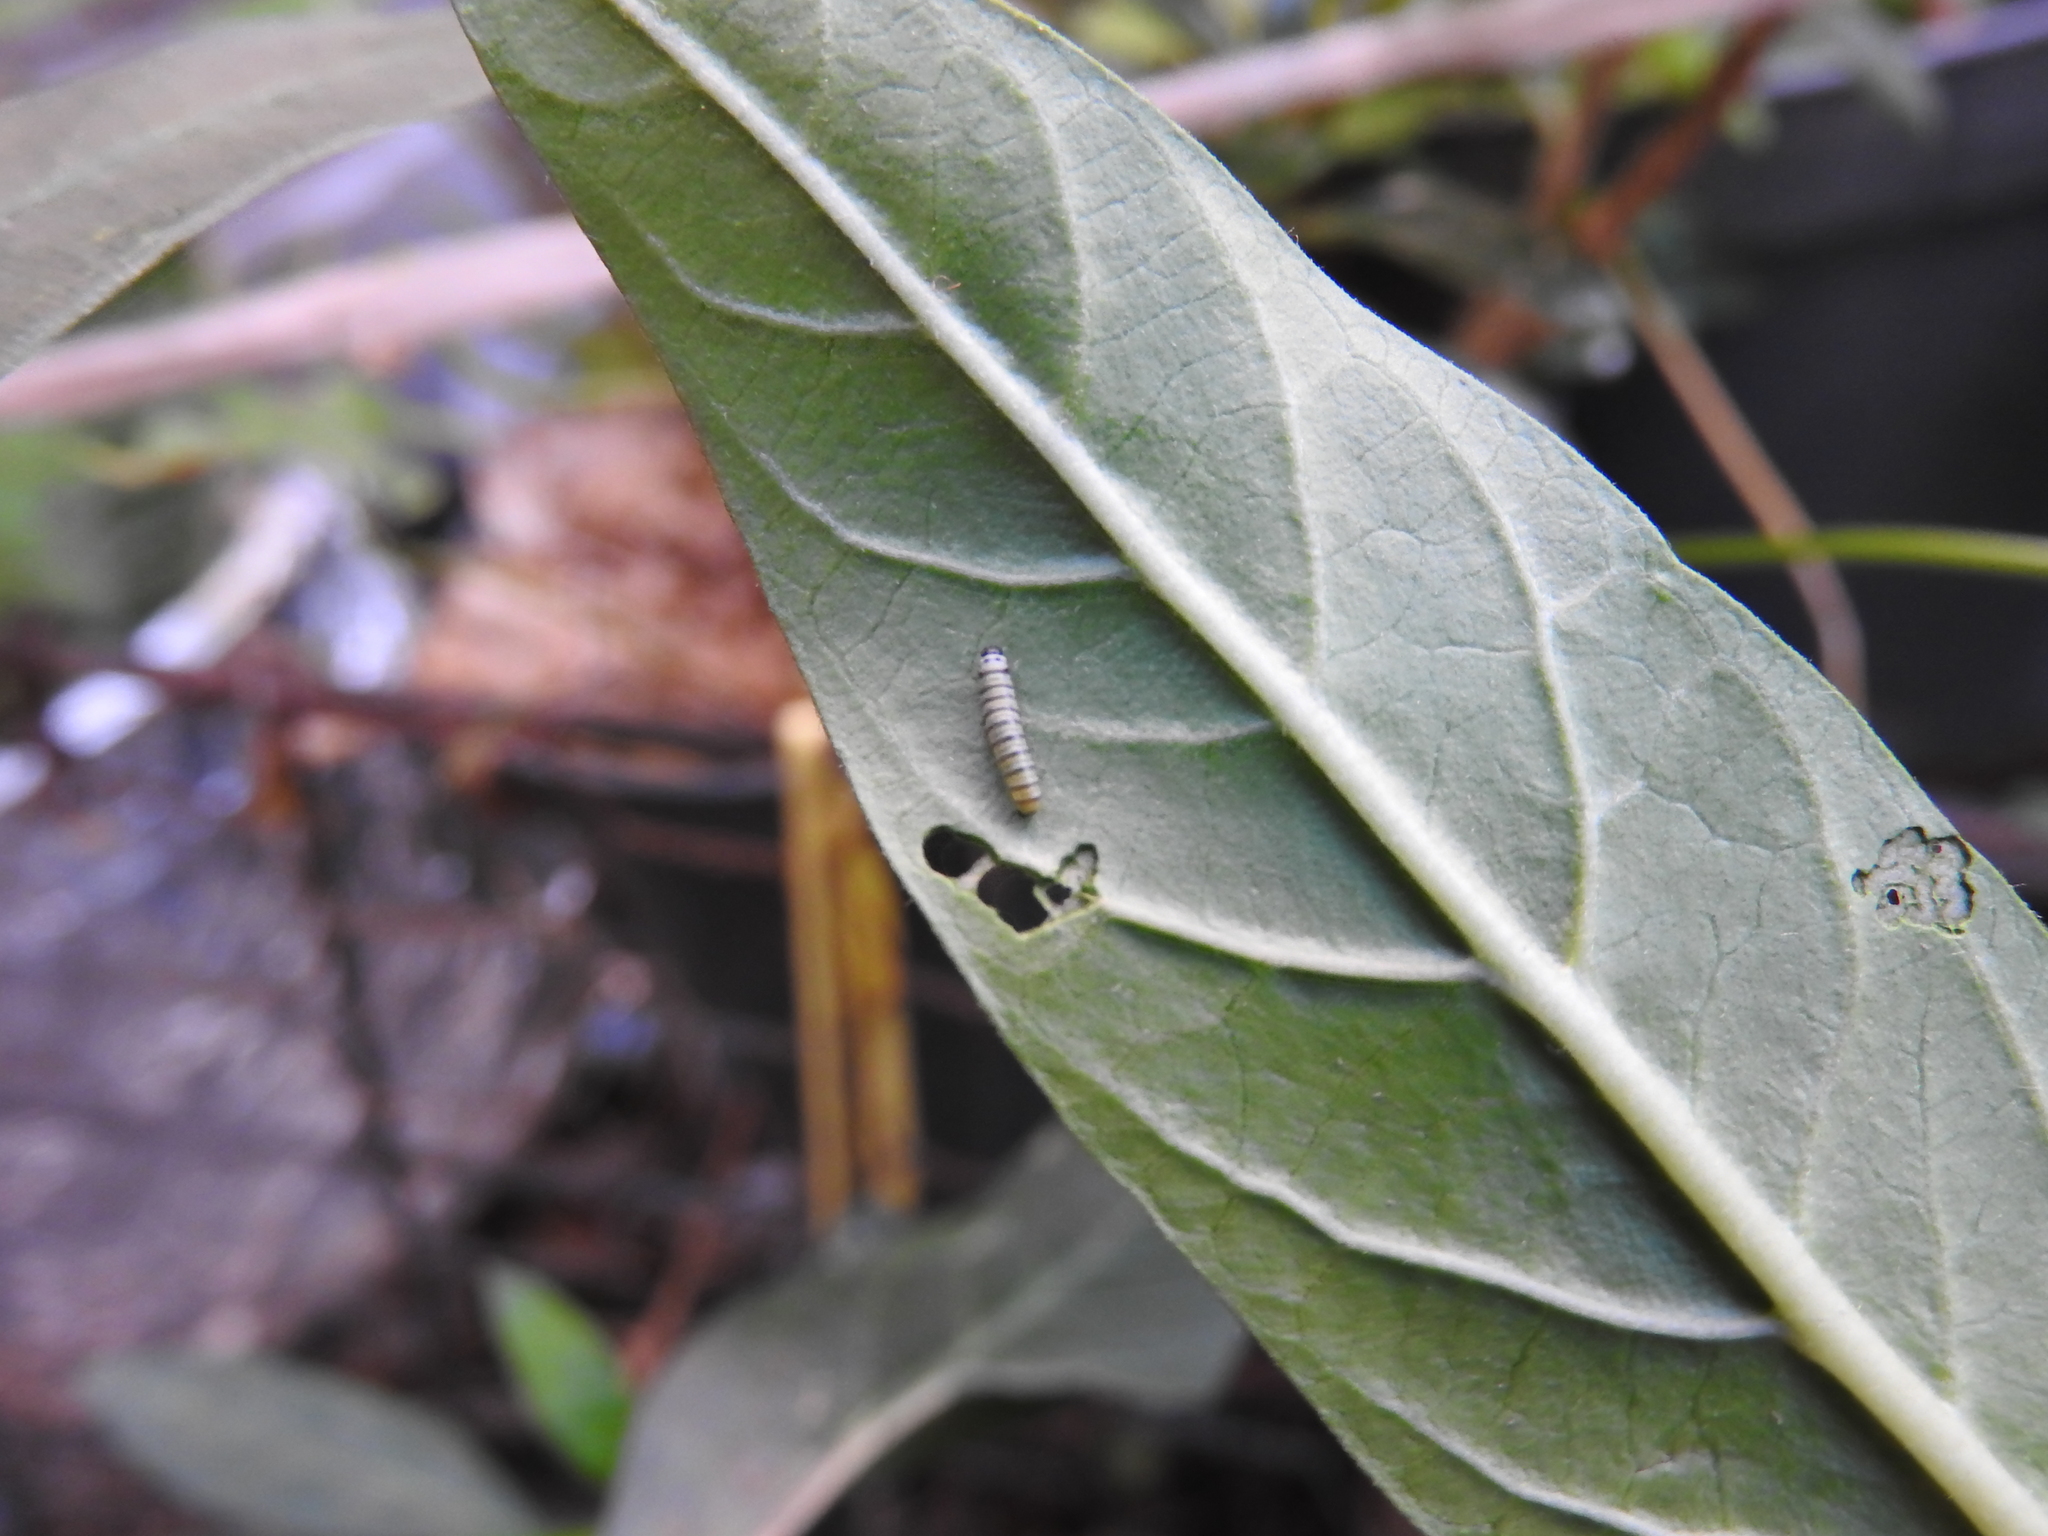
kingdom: Animalia
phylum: Arthropoda
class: Insecta
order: Lepidoptera
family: Nymphalidae
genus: Danaus
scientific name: Danaus plexippus
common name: Monarch
